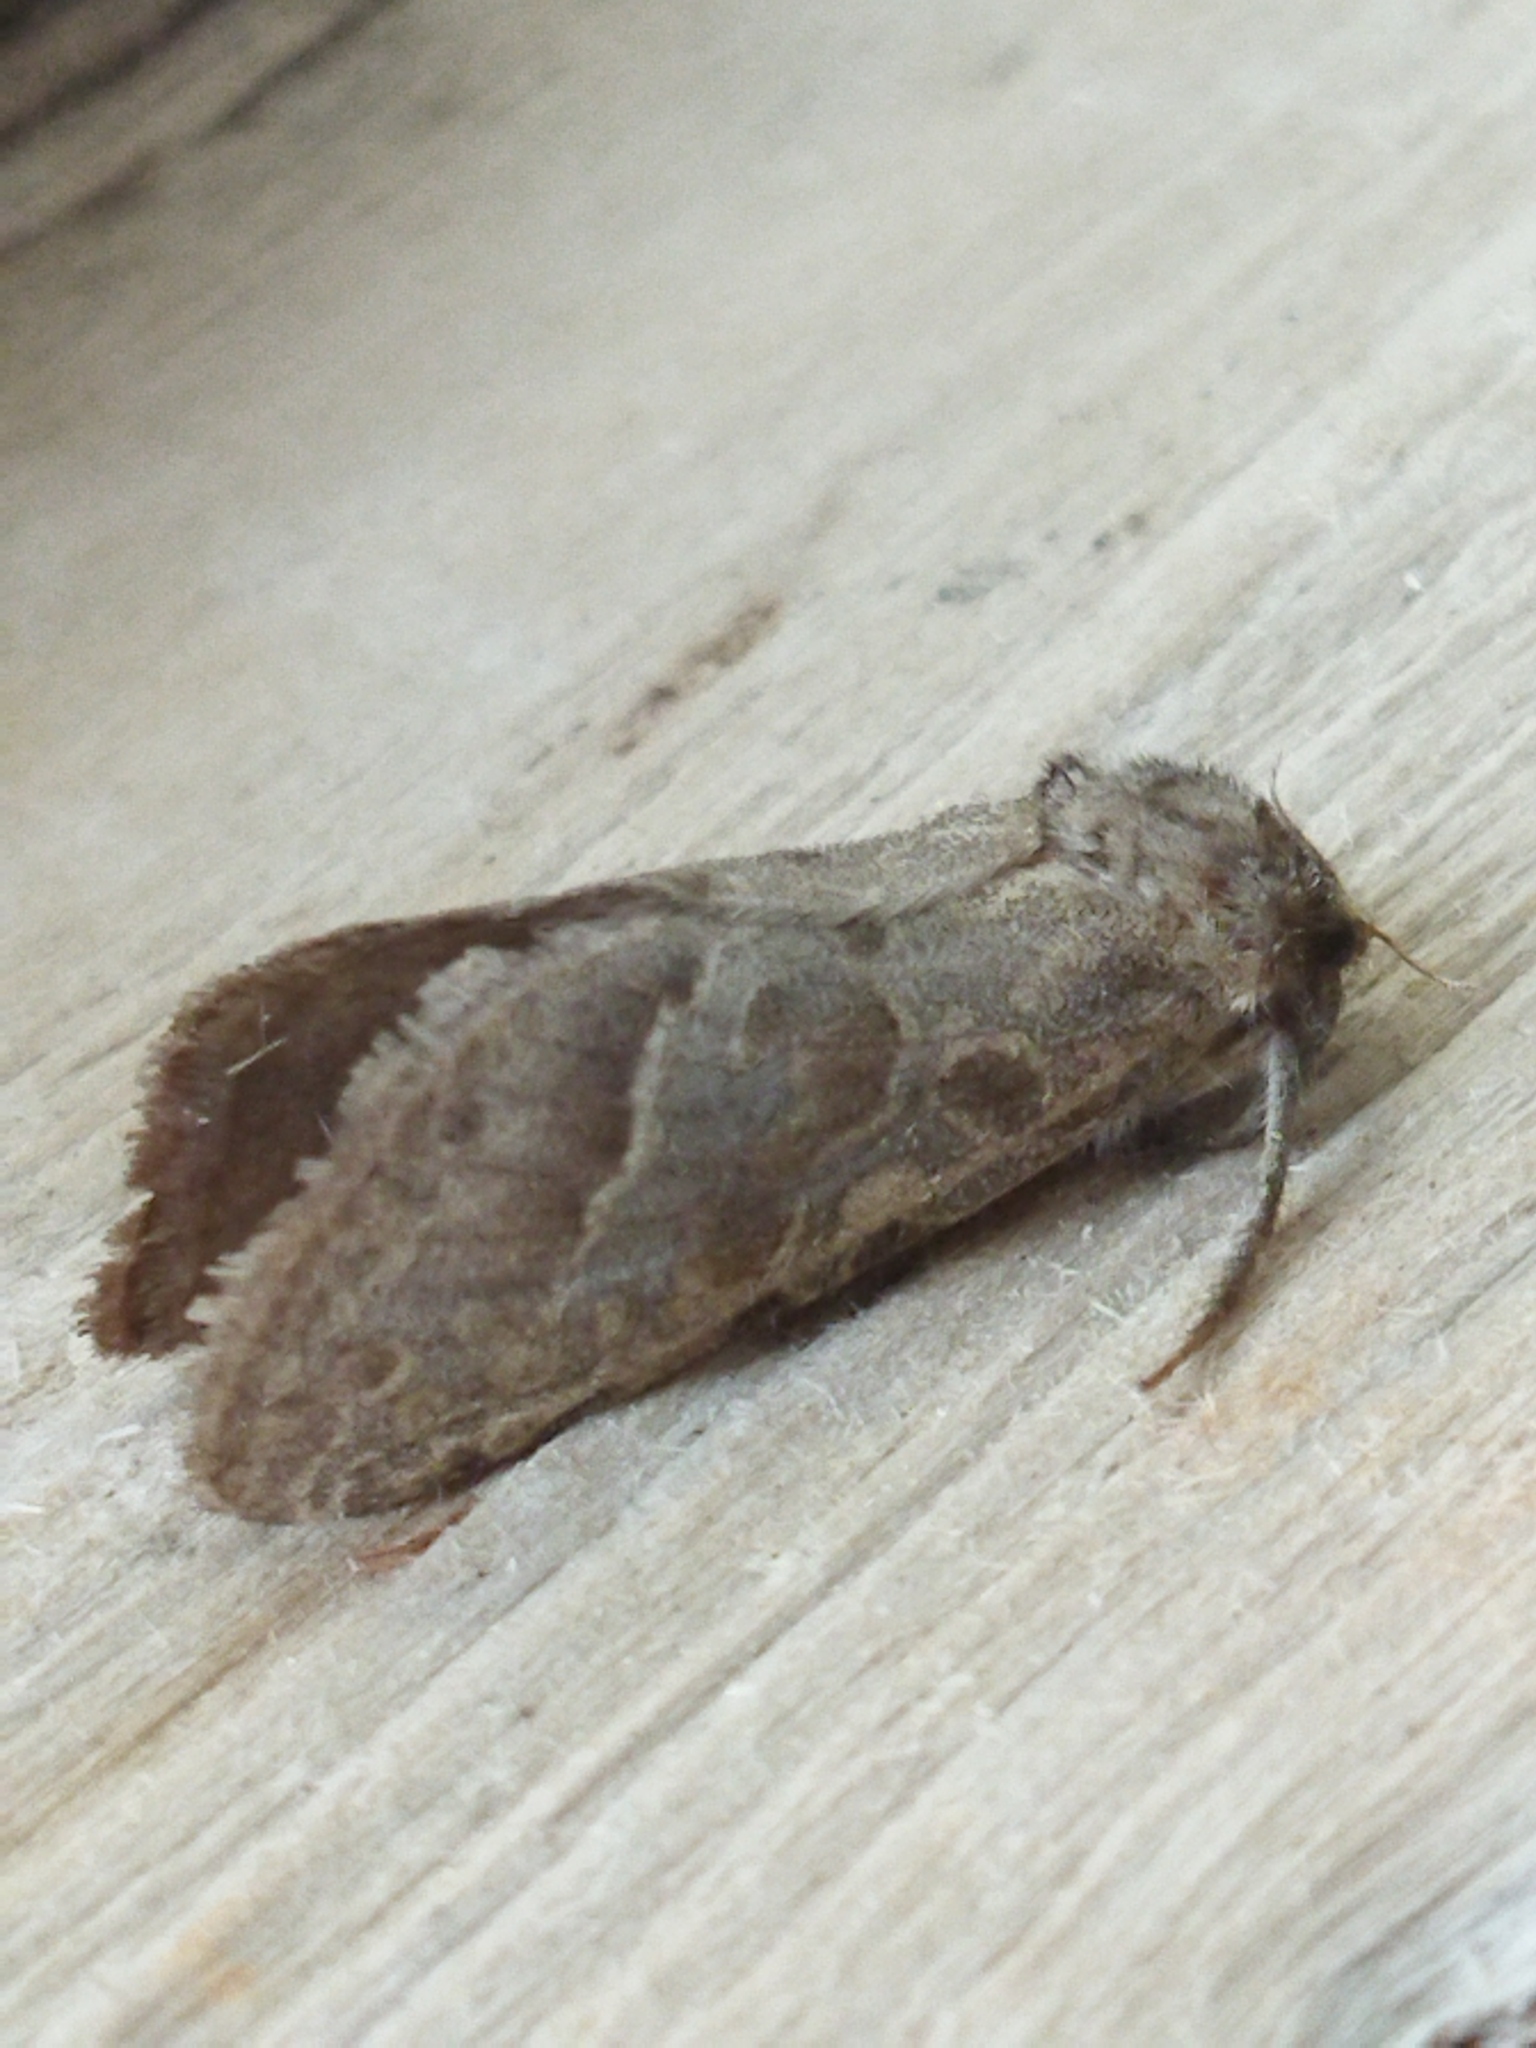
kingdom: Animalia
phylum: Arthropoda
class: Insecta
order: Lepidoptera
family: Hepialidae
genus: Triodia
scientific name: Triodia amasinus
